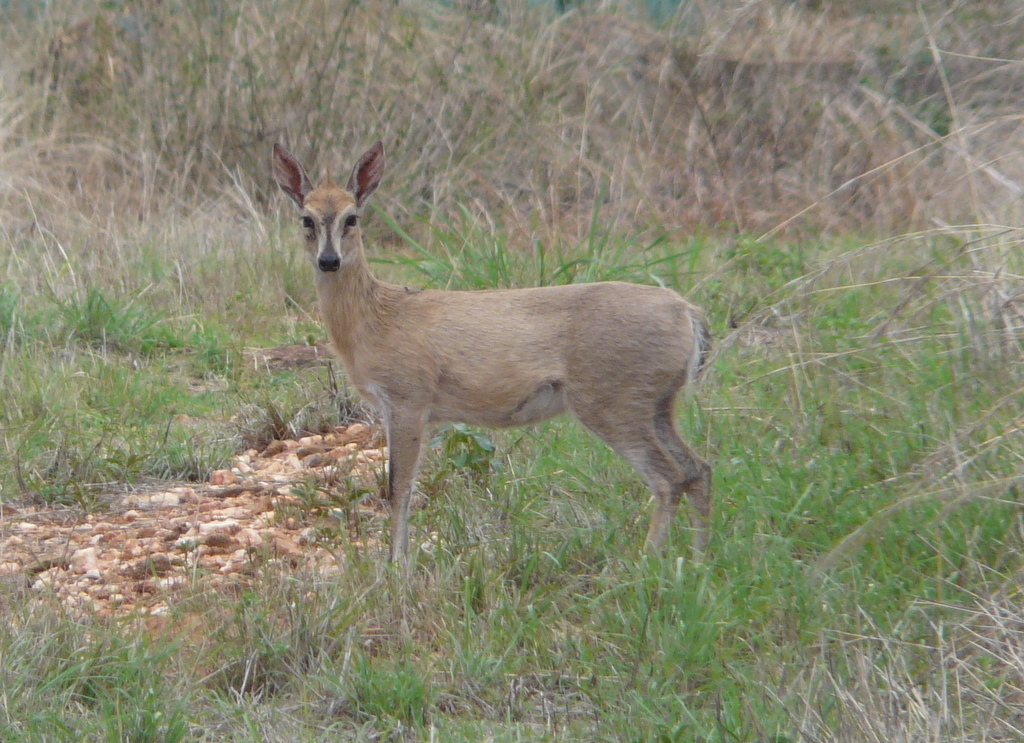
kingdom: Animalia
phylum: Chordata
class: Mammalia
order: Artiodactyla
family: Bovidae
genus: Sylvicapra
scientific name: Sylvicapra grimmia
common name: Bush duiker
